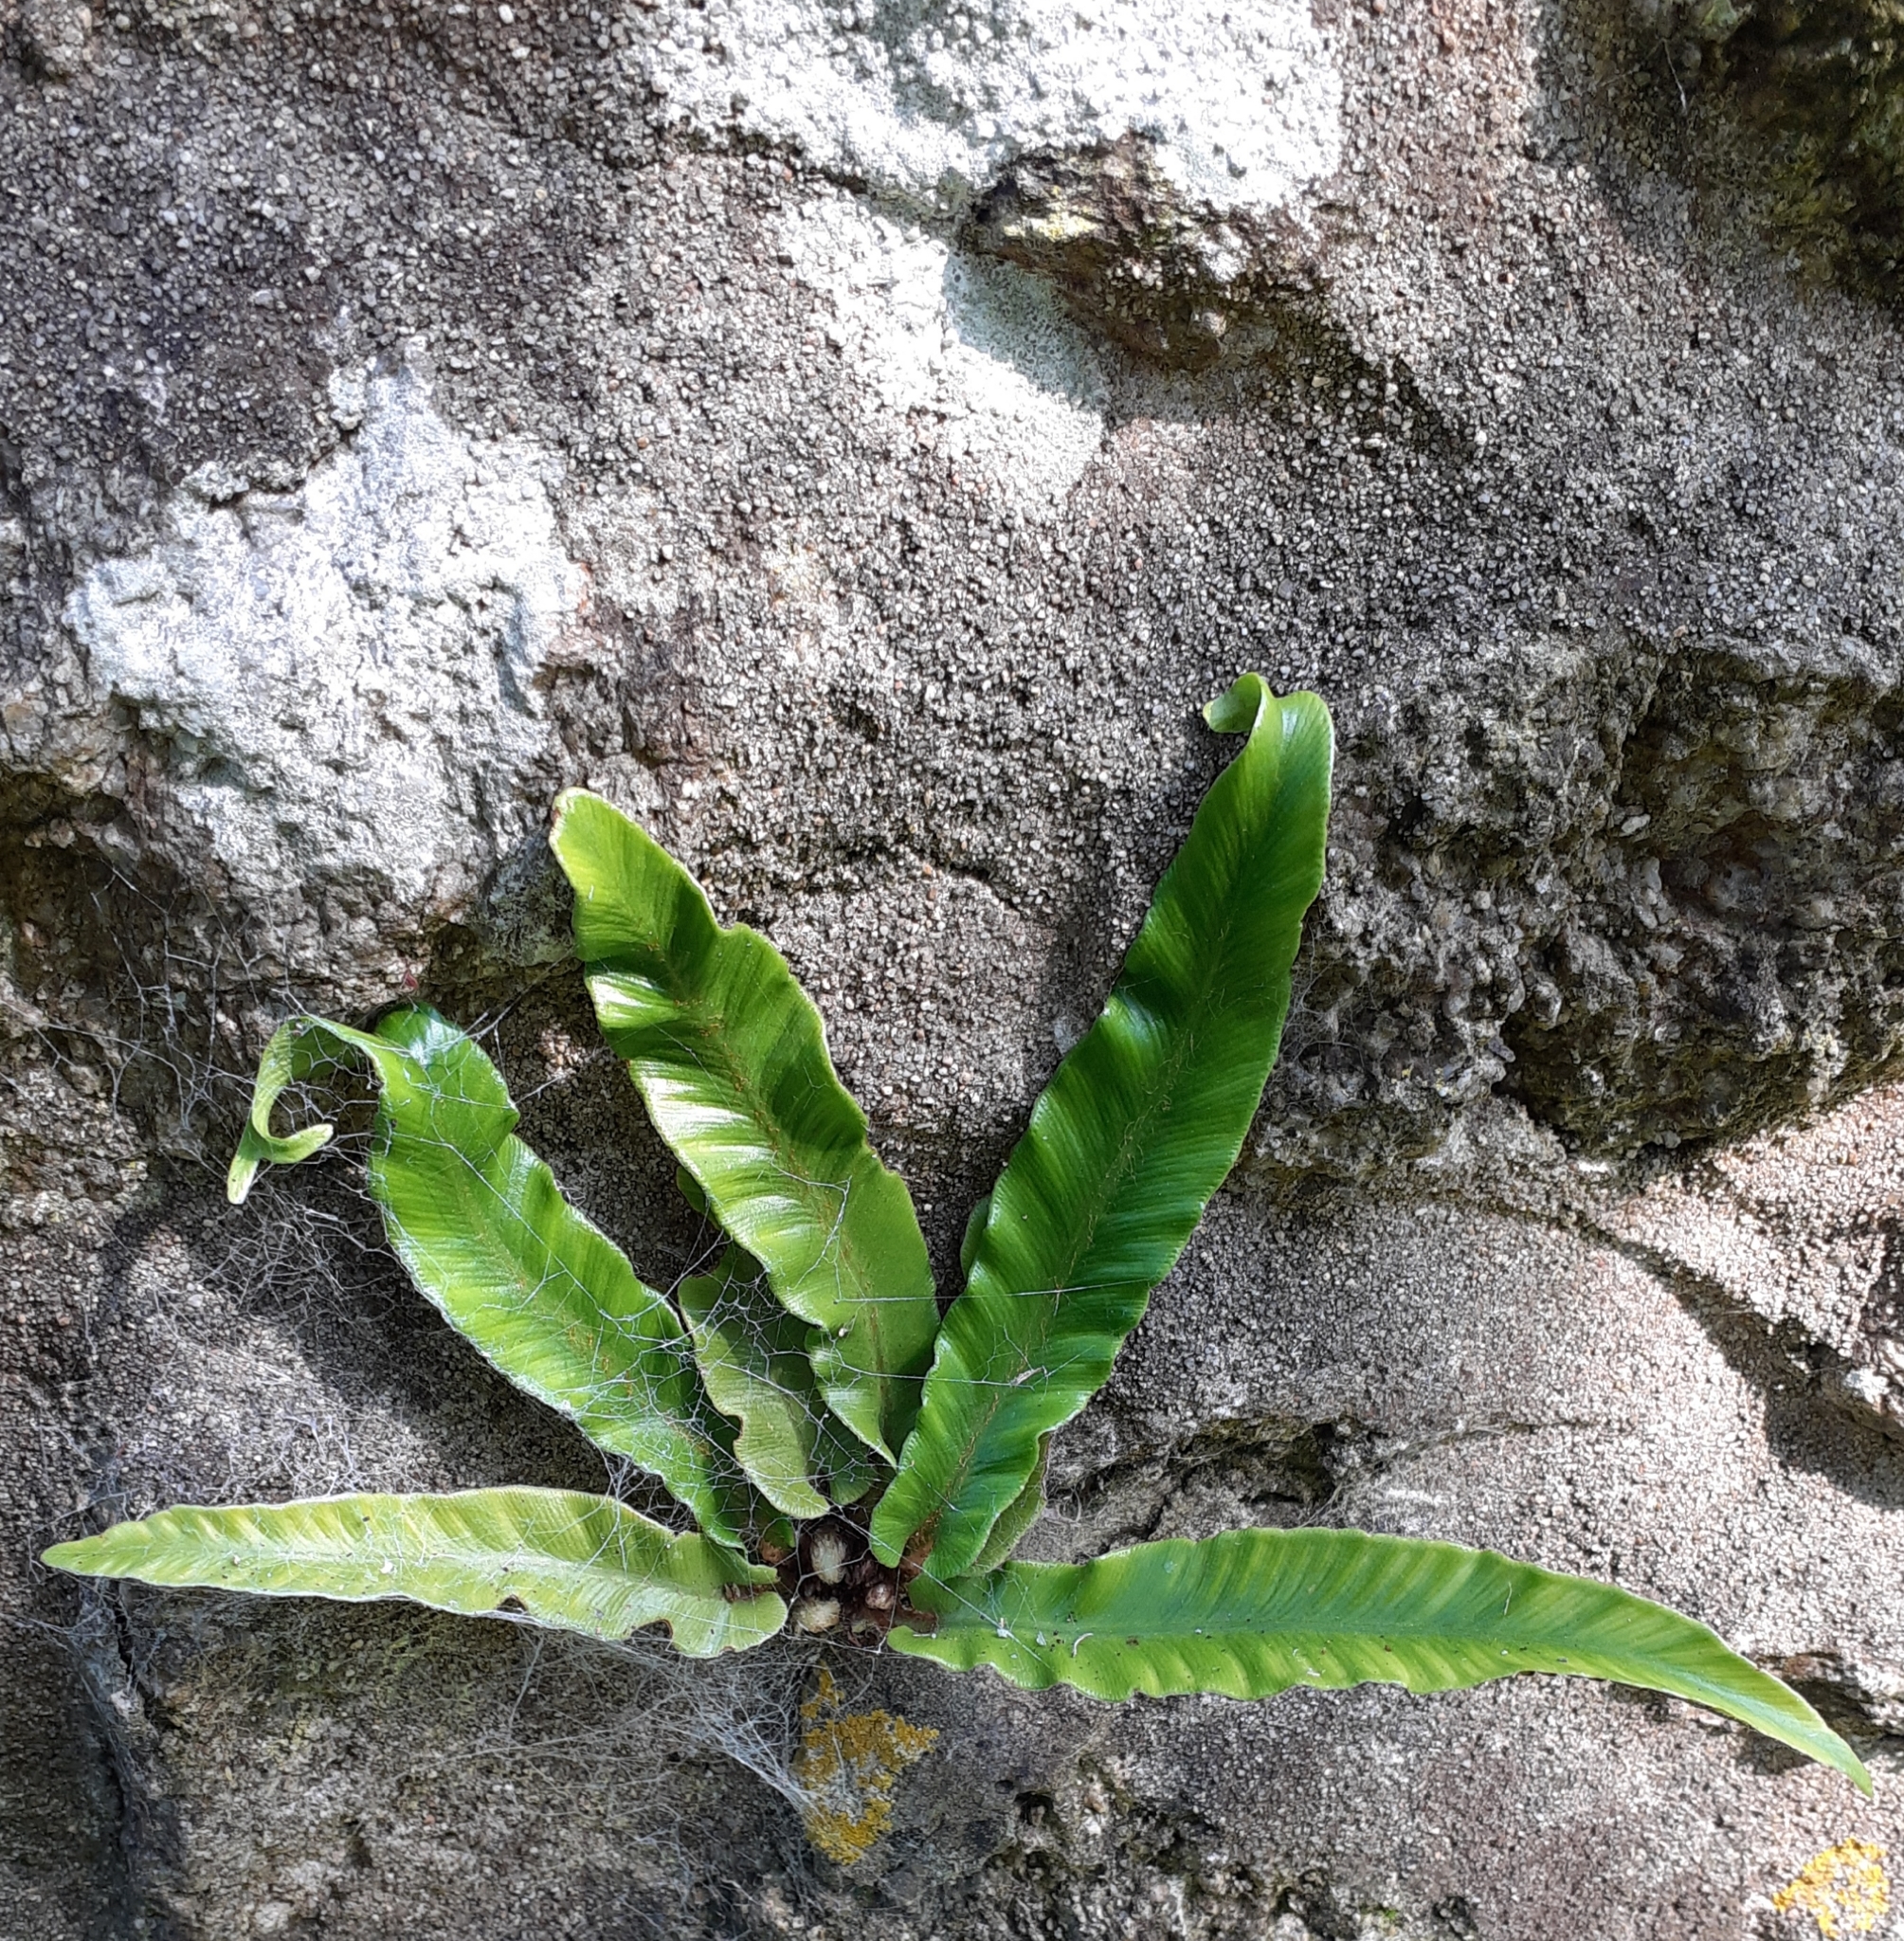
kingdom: Plantae
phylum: Tracheophyta
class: Polypodiopsida
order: Polypodiales
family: Aspleniaceae
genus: Asplenium
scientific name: Asplenium scolopendrium
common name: Hart's-tongue fern
